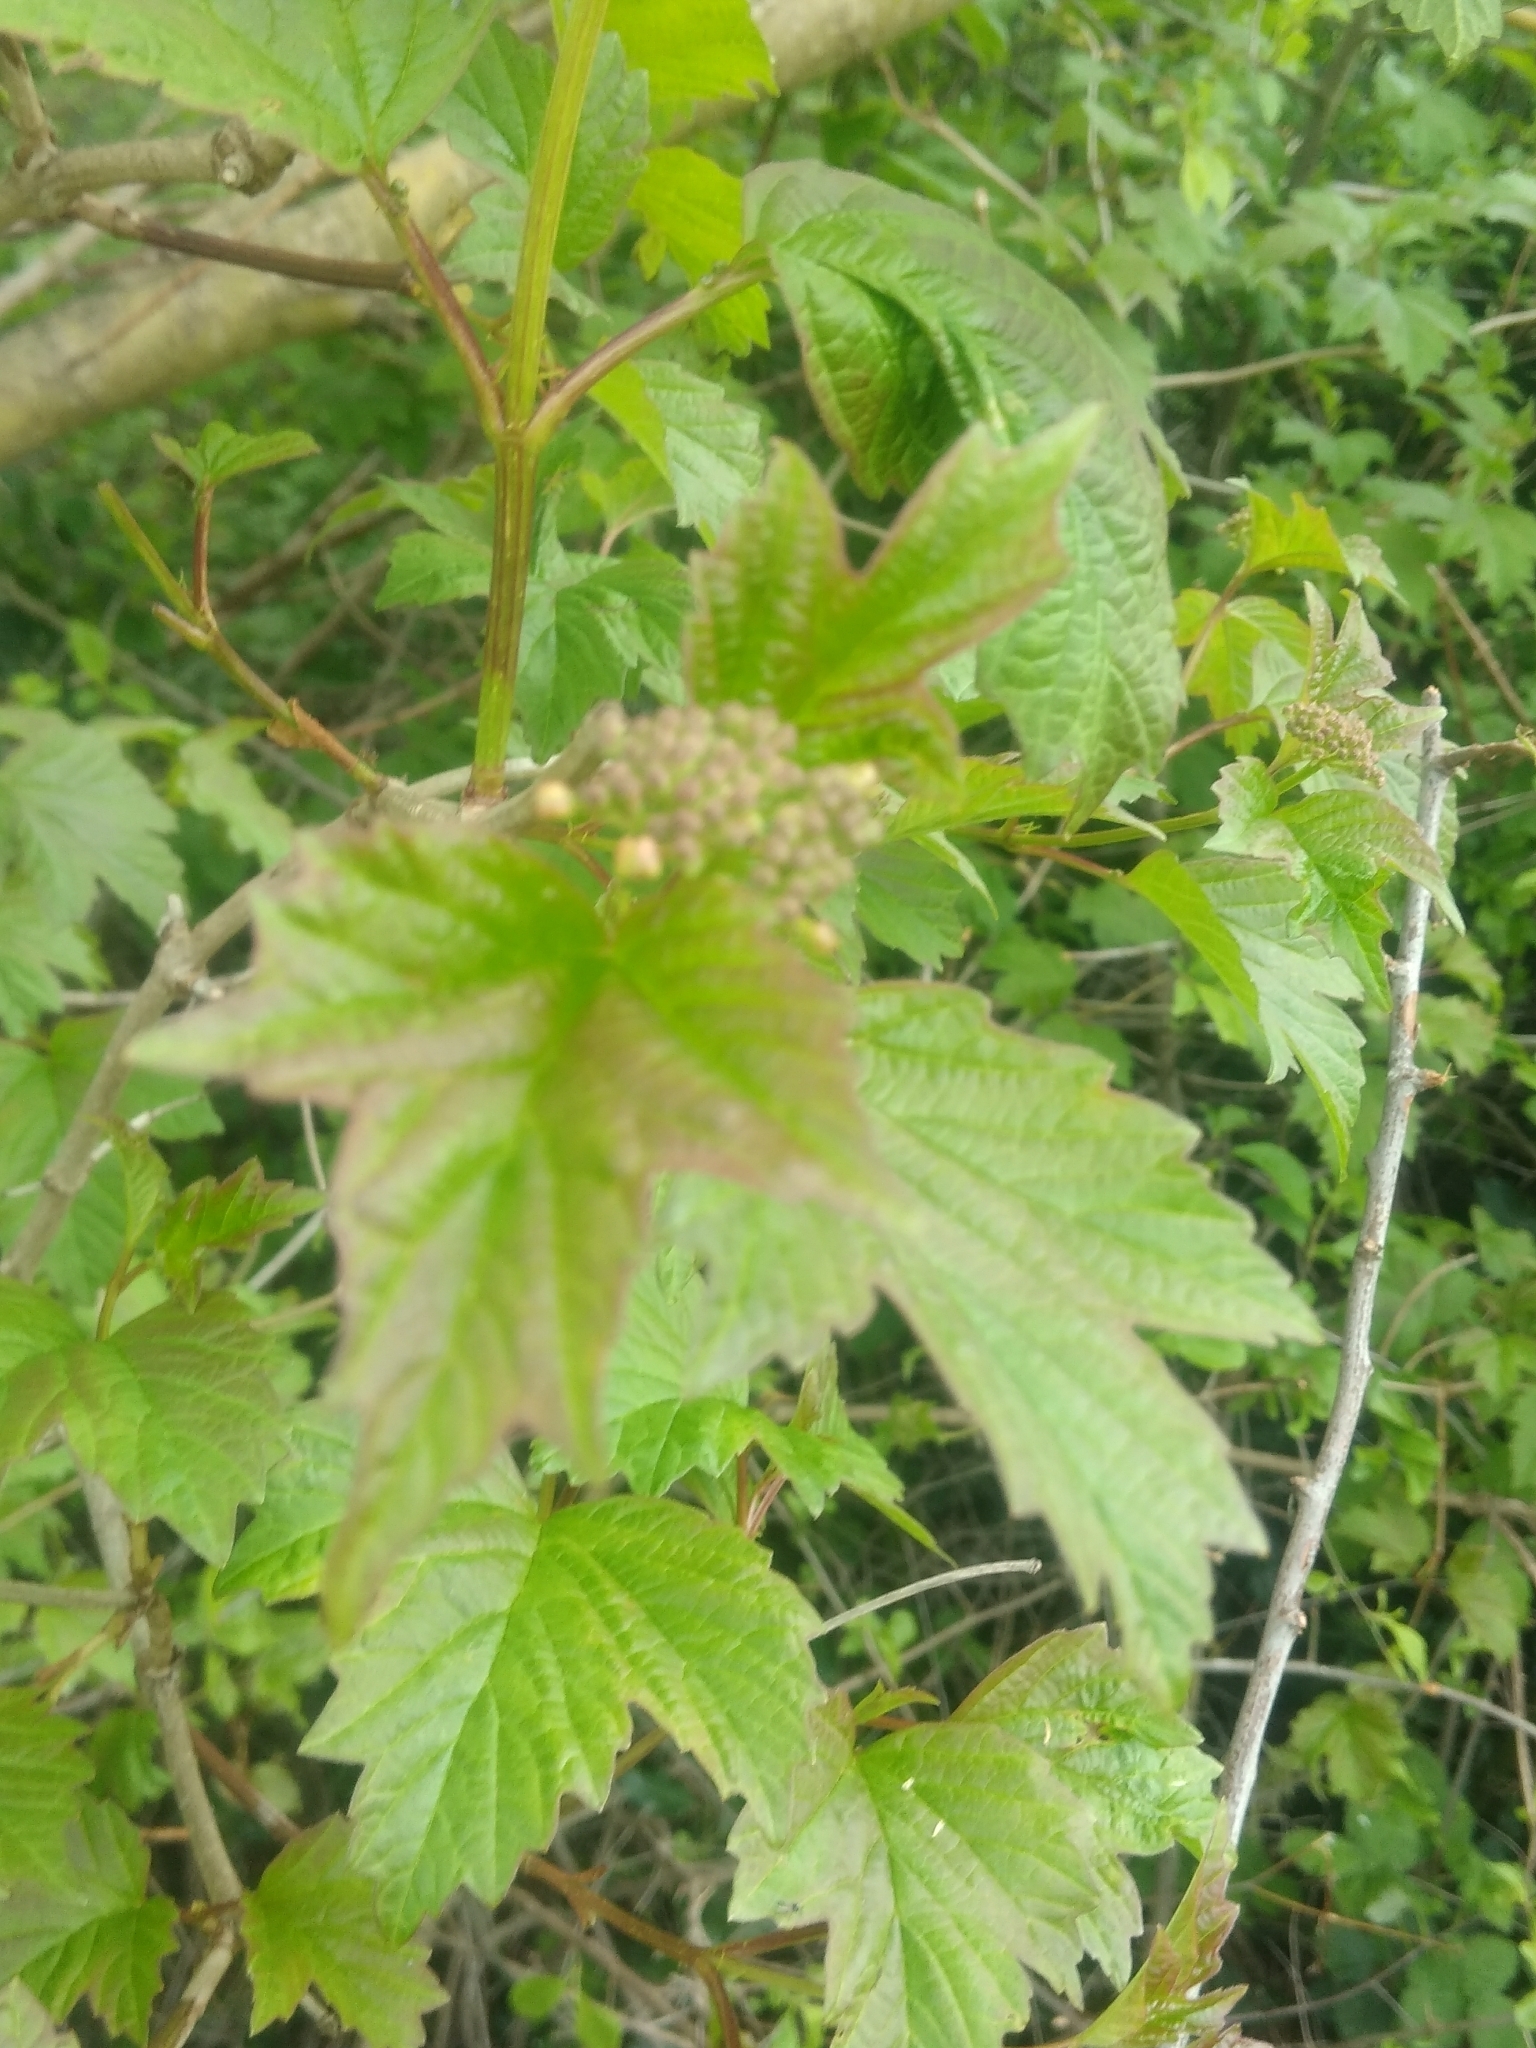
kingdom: Plantae
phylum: Tracheophyta
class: Magnoliopsida
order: Dipsacales
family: Viburnaceae
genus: Viburnum
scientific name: Viburnum opulus
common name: Guelder-rose
